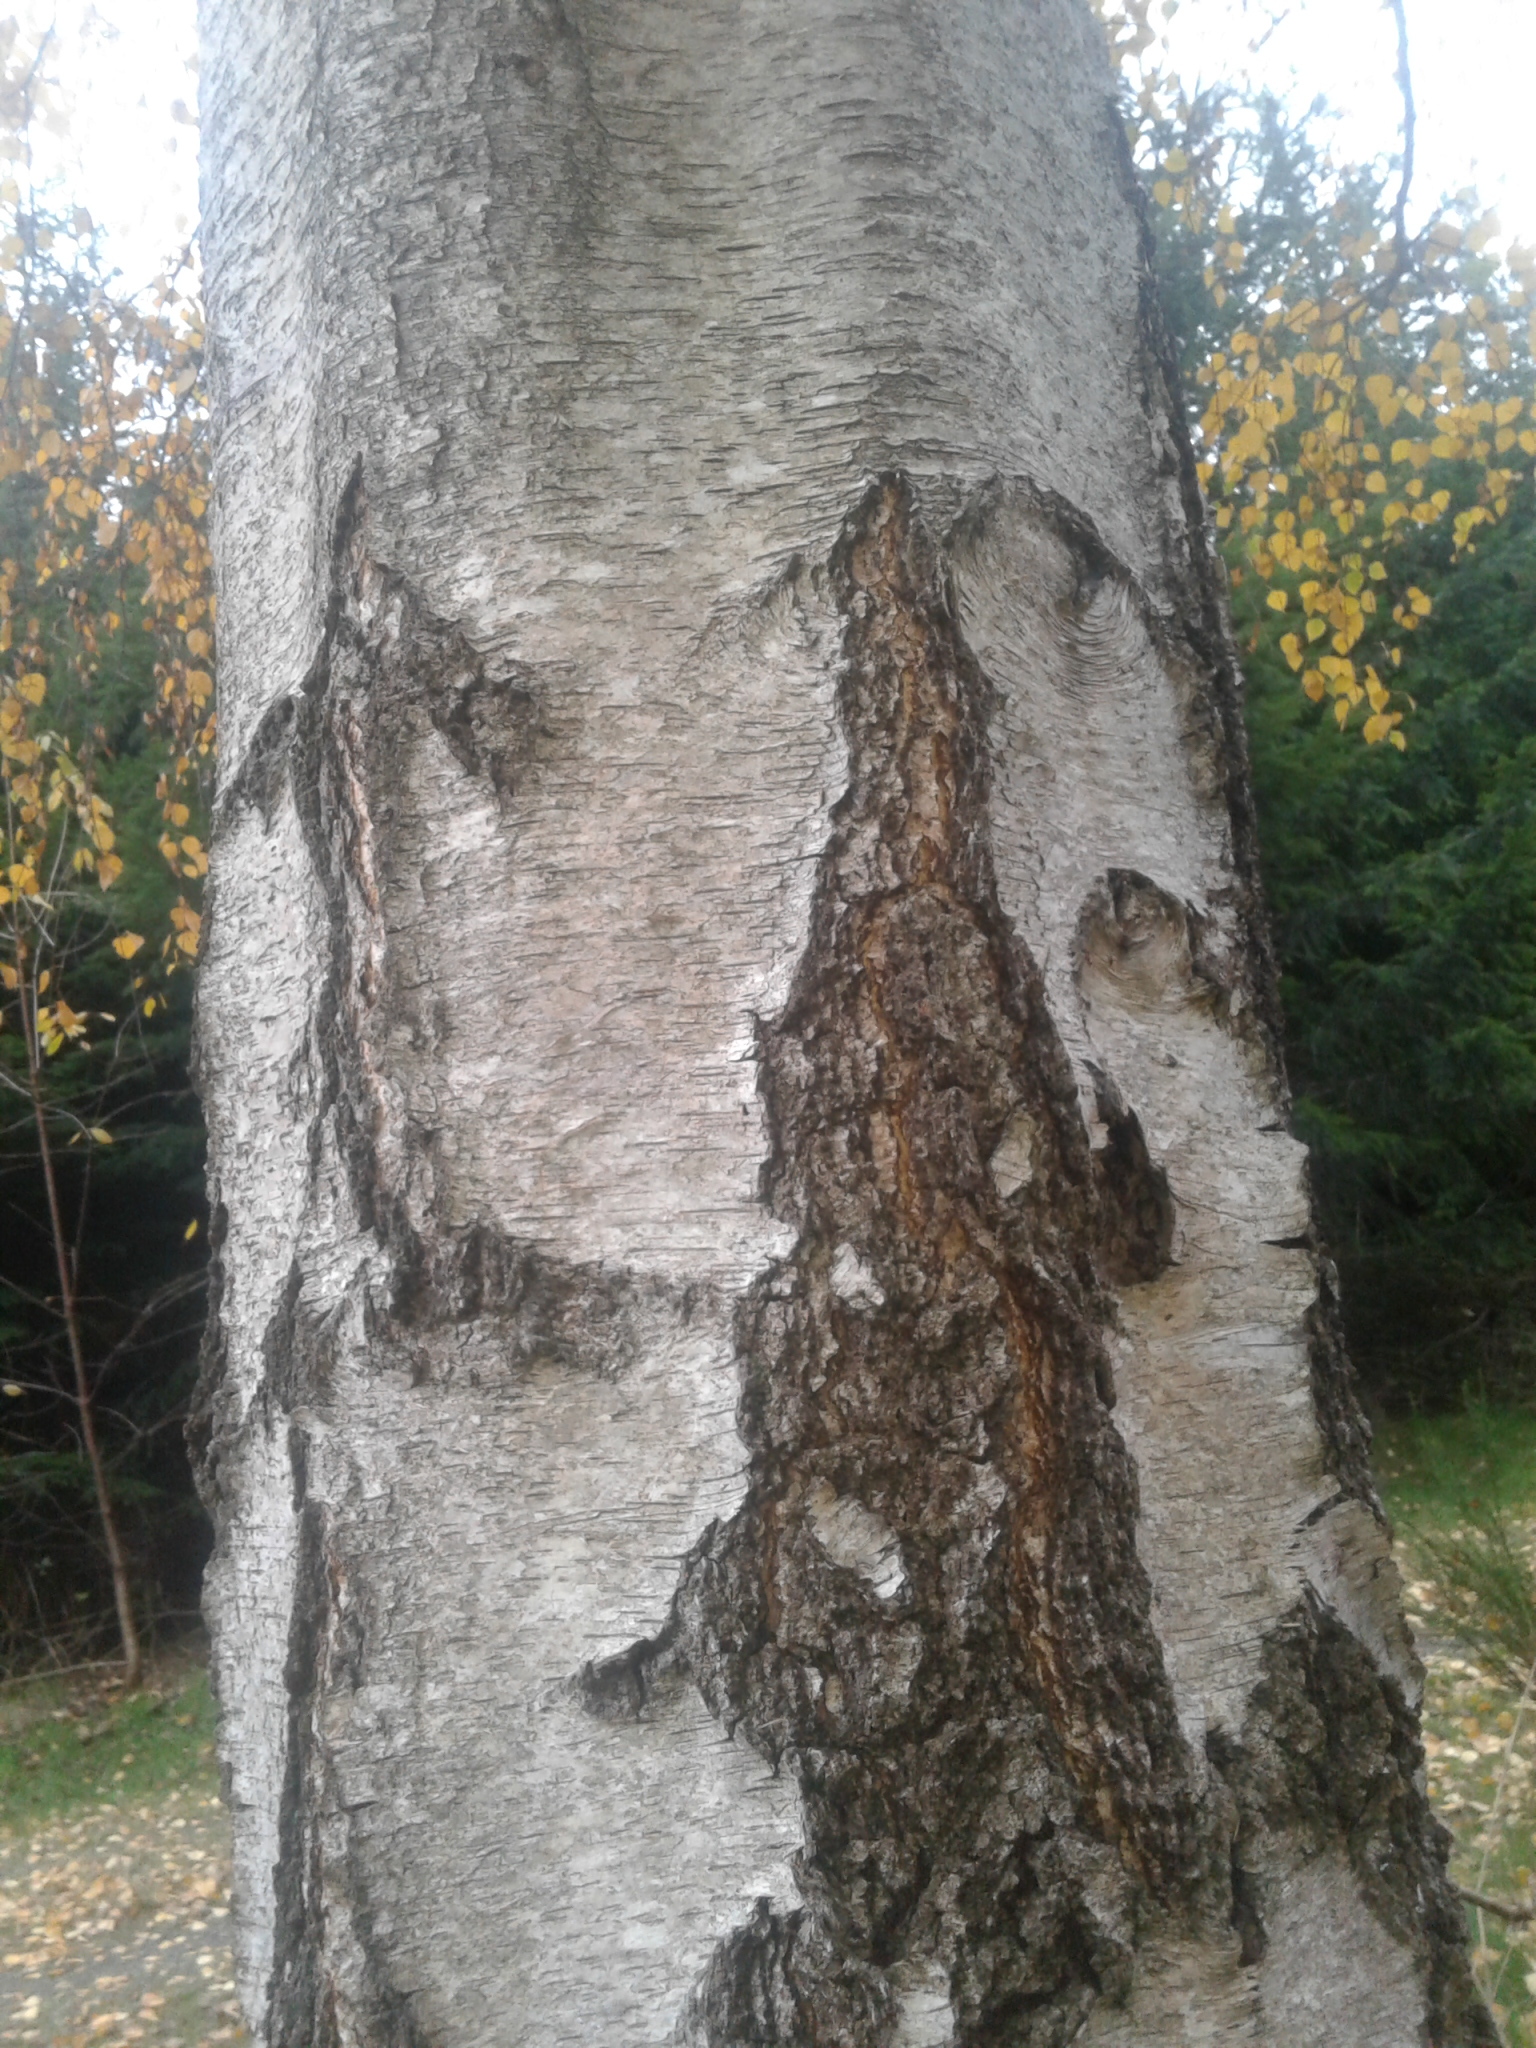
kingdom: Plantae
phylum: Tracheophyta
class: Magnoliopsida
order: Fagales
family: Betulaceae
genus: Betula
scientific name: Betula pendula
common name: Silver birch
